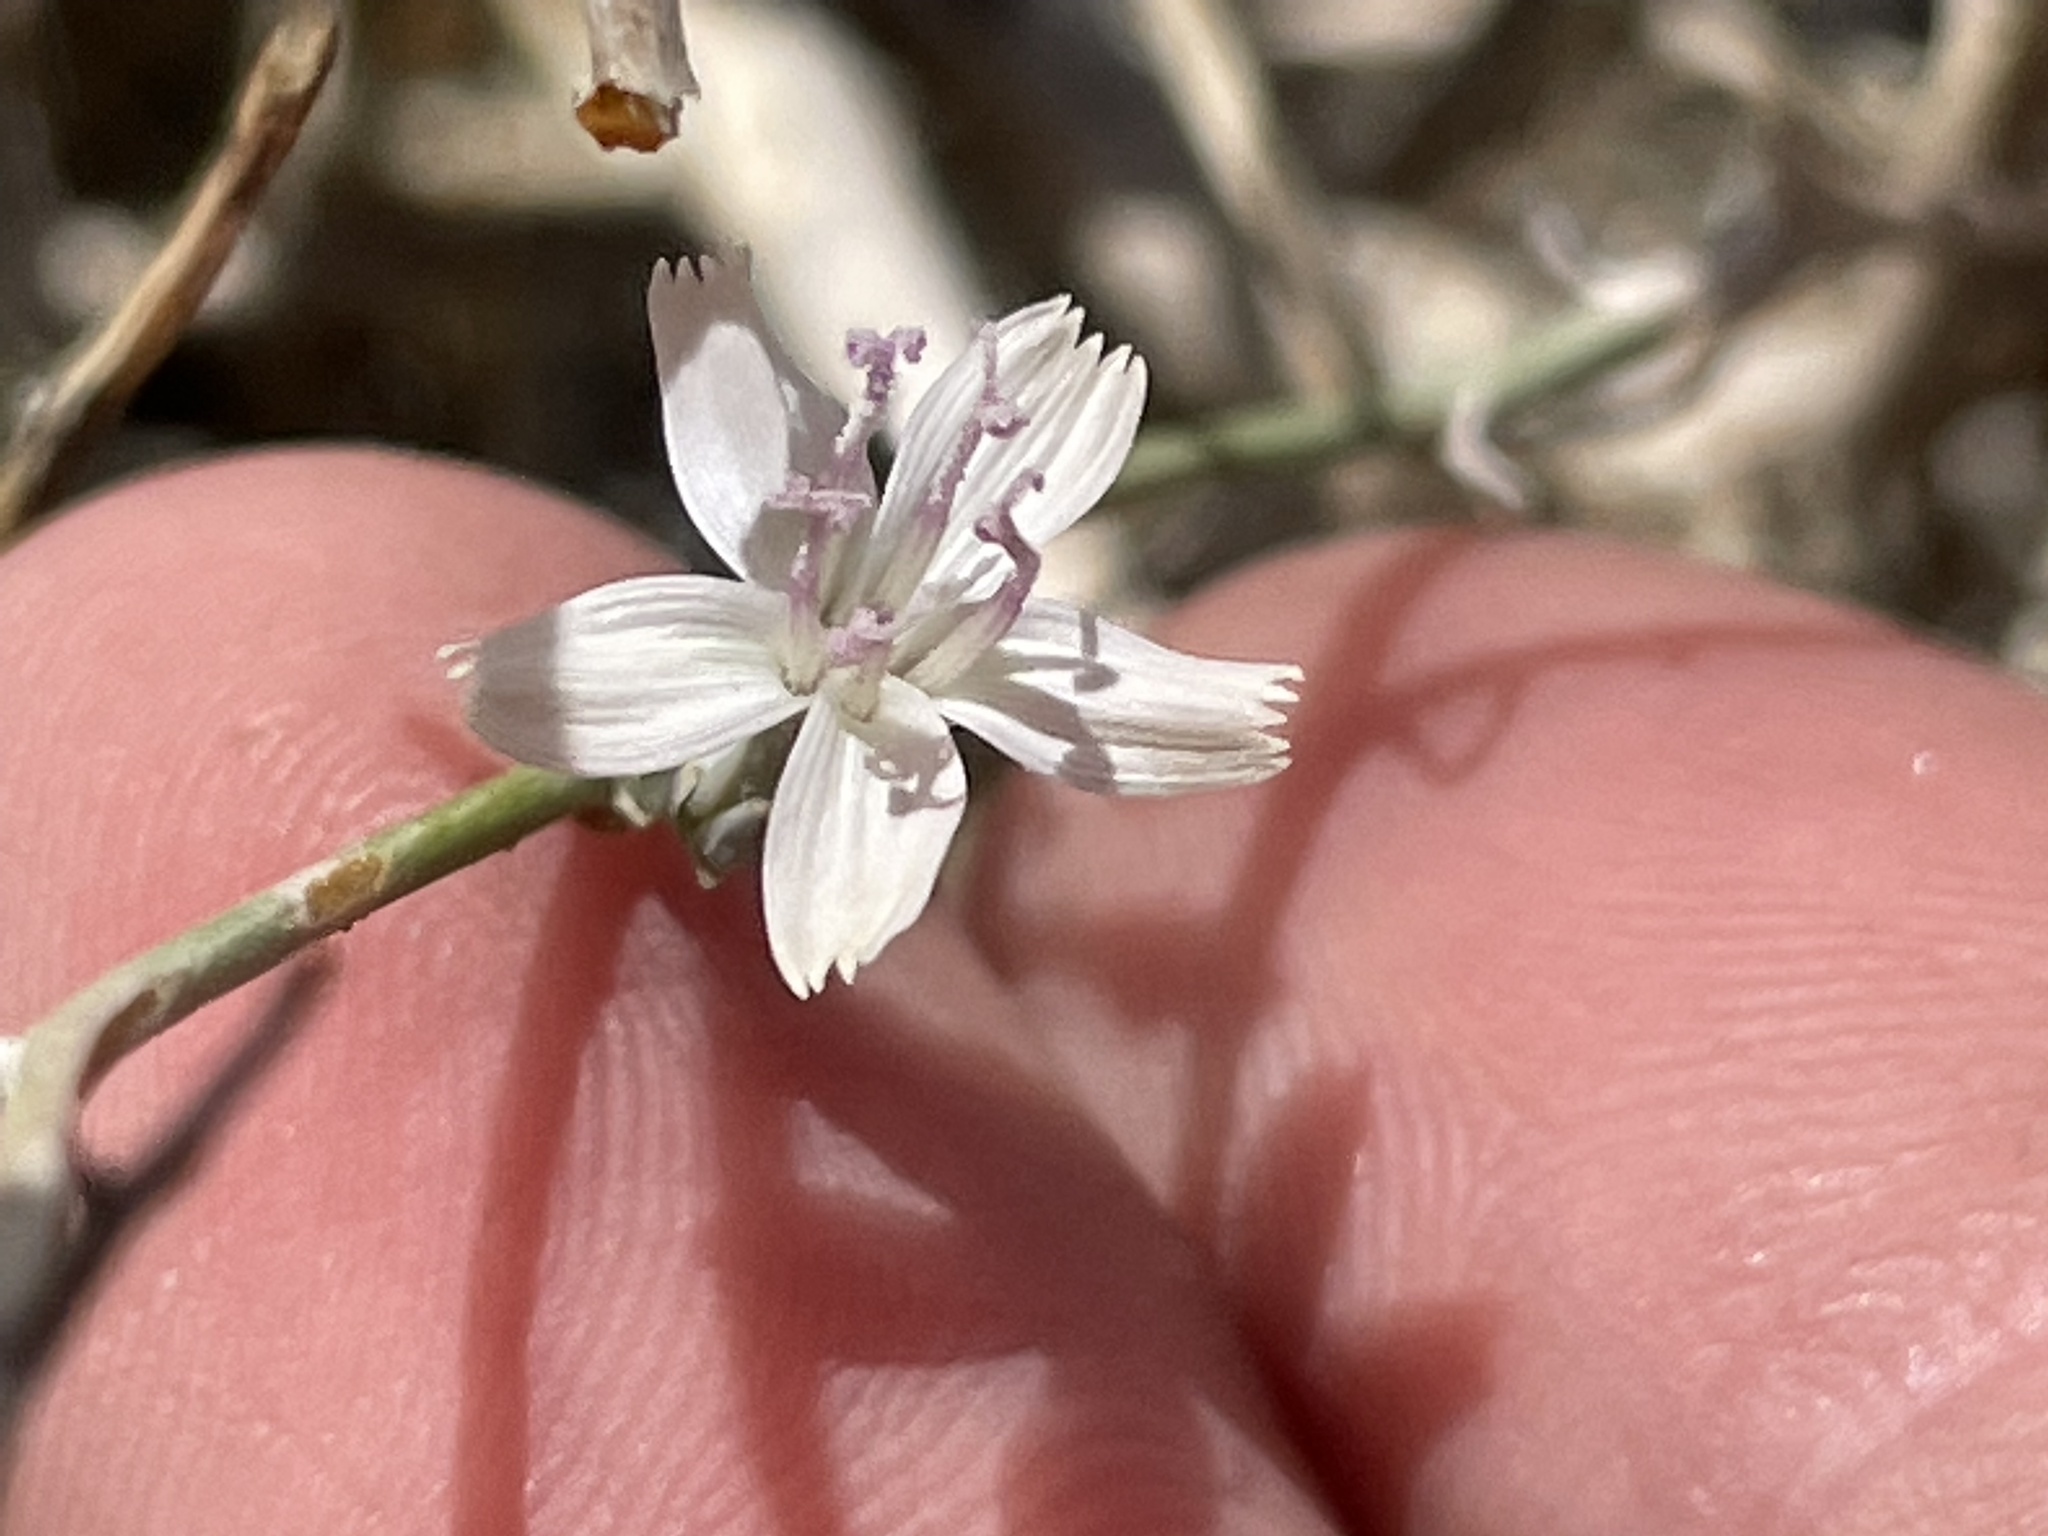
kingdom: Plantae
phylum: Tracheophyta
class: Magnoliopsida
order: Asterales
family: Asteraceae
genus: Stephanomeria
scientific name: Stephanomeria pauciflora
